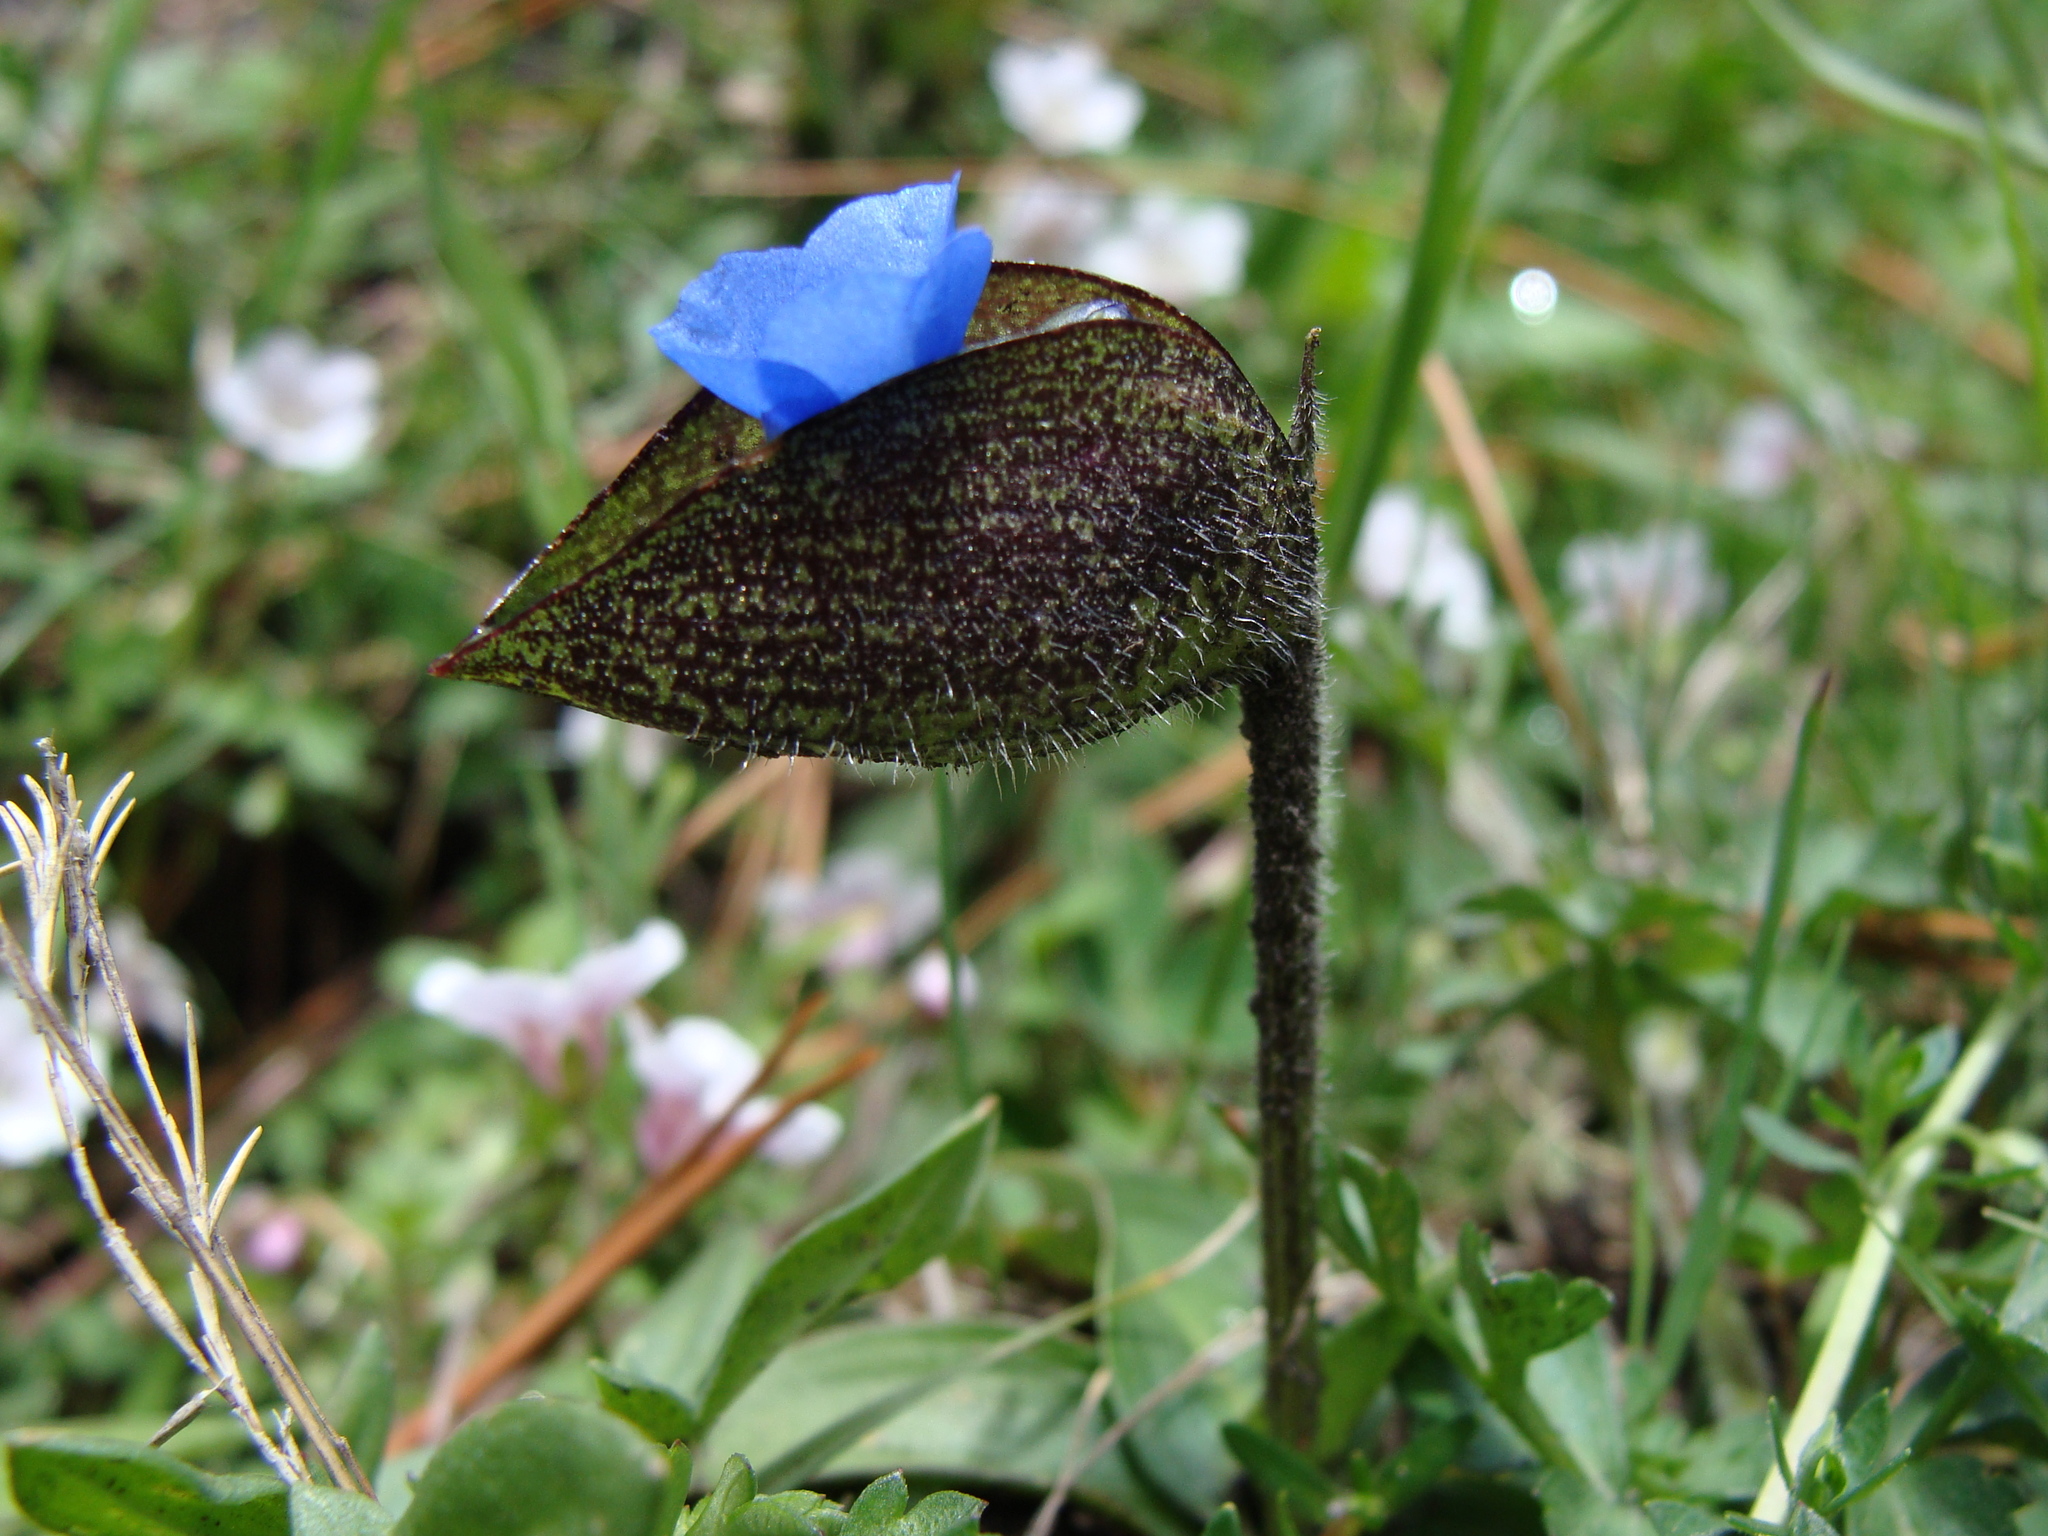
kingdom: Plantae
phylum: Tracheophyta
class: Liliopsida
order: Commelinales
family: Commelinaceae
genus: Commelina
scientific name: Commelina orchioides
